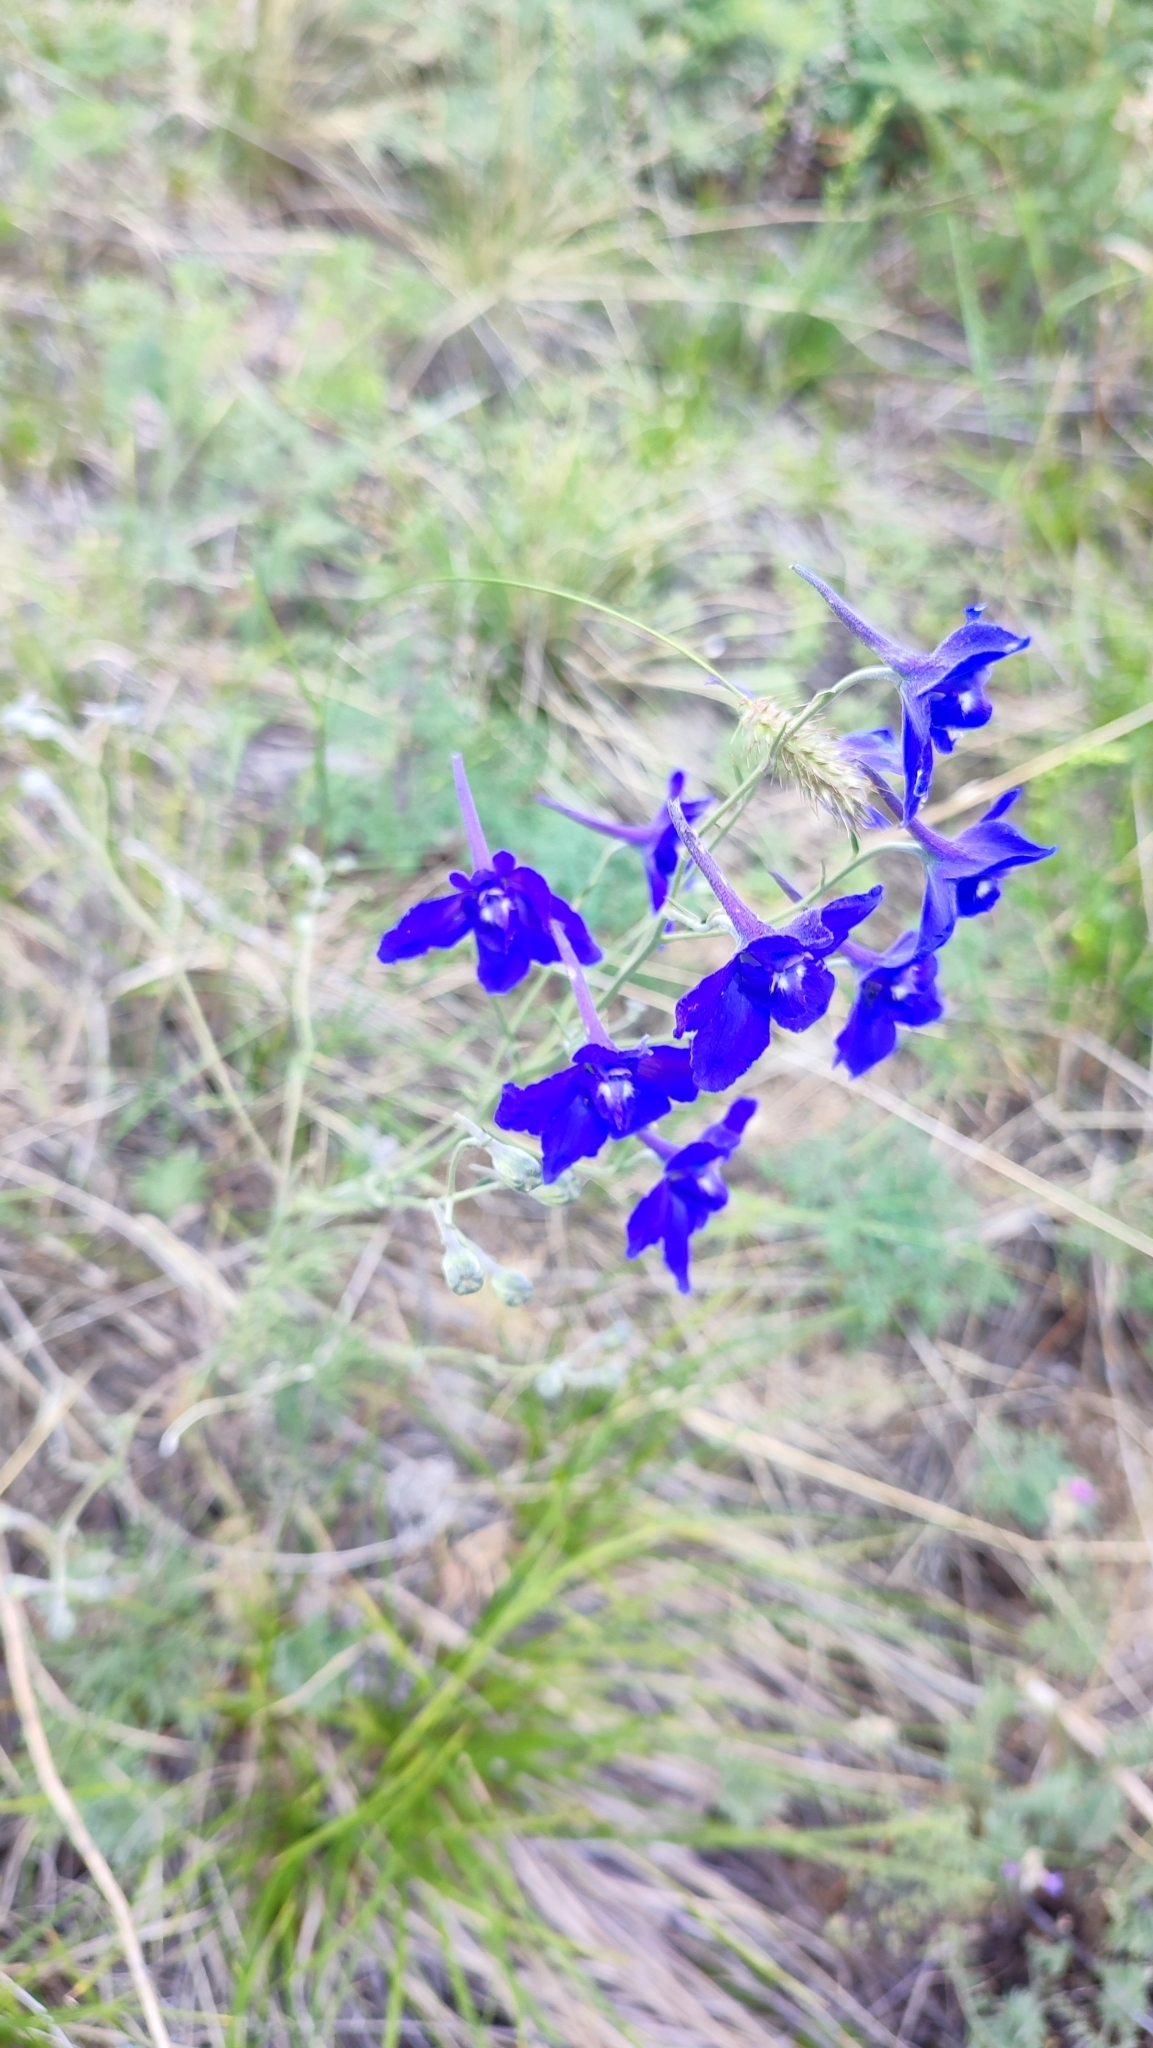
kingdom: Plantae
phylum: Tracheophyta
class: Magnoliopsida
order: Ranunculales
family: Ranunculaceae
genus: Delphinium
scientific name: Delphinium grandiflorum
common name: Siberian larkspur
